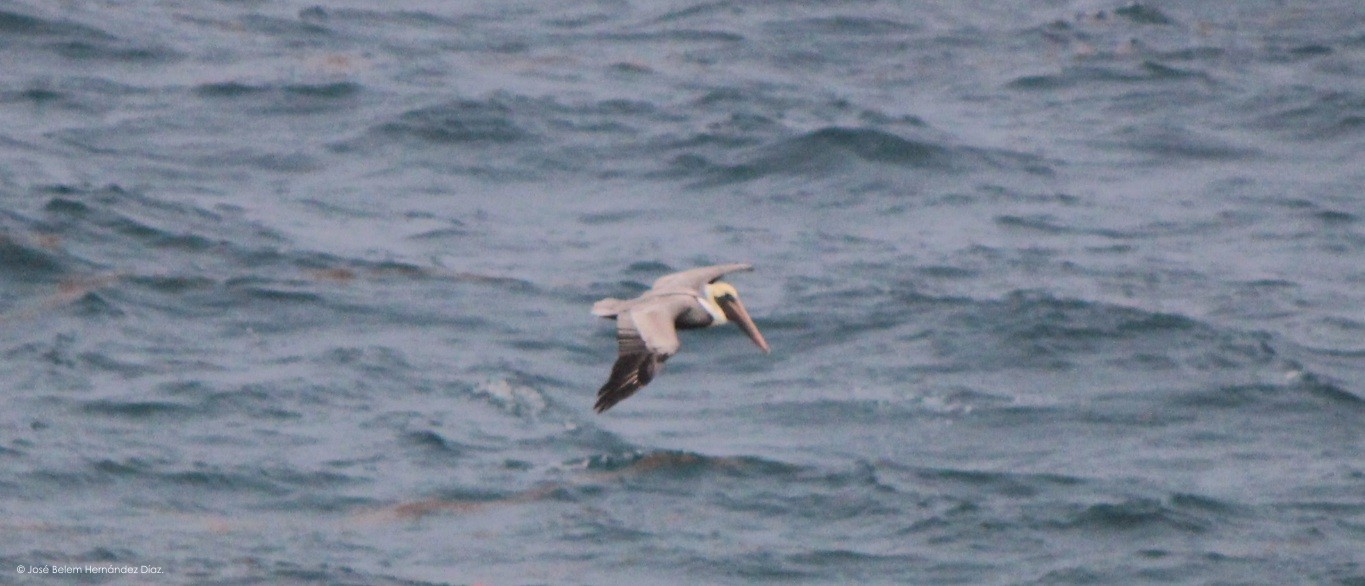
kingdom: Animalia
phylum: Chordata
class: Aves
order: Pelecaniformes
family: Pelecanidae
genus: Pelecanus
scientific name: Pelecanus occidentalis
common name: Brown pelican
